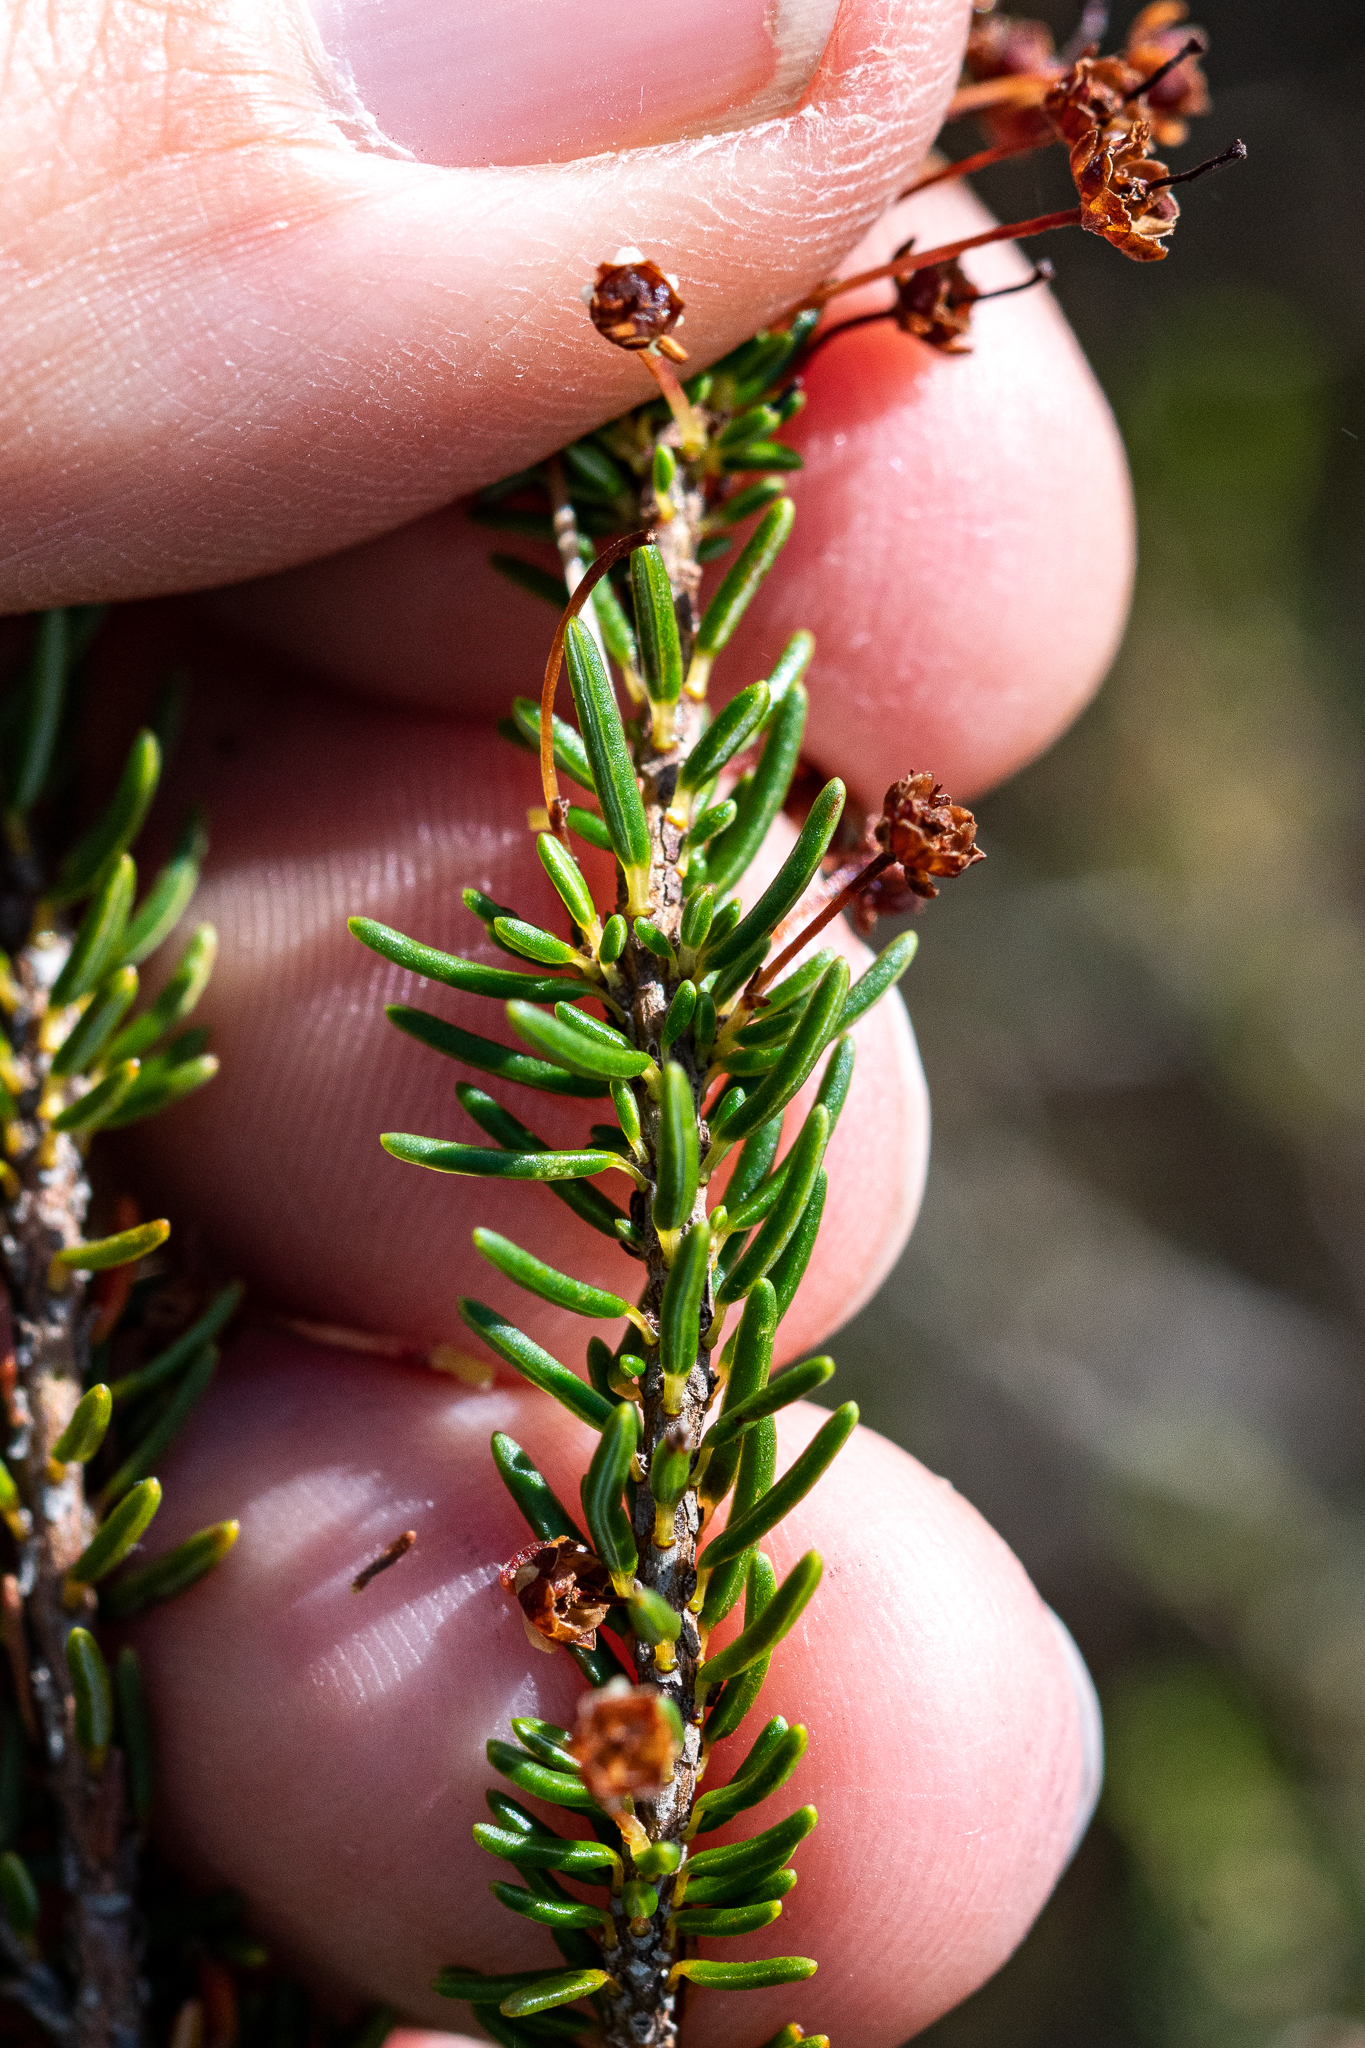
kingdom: Plantae
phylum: Tracheophyta
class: Magnoliopsida
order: Ericales
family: Ericaceae
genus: Erica
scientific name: Erica rubiginosa
